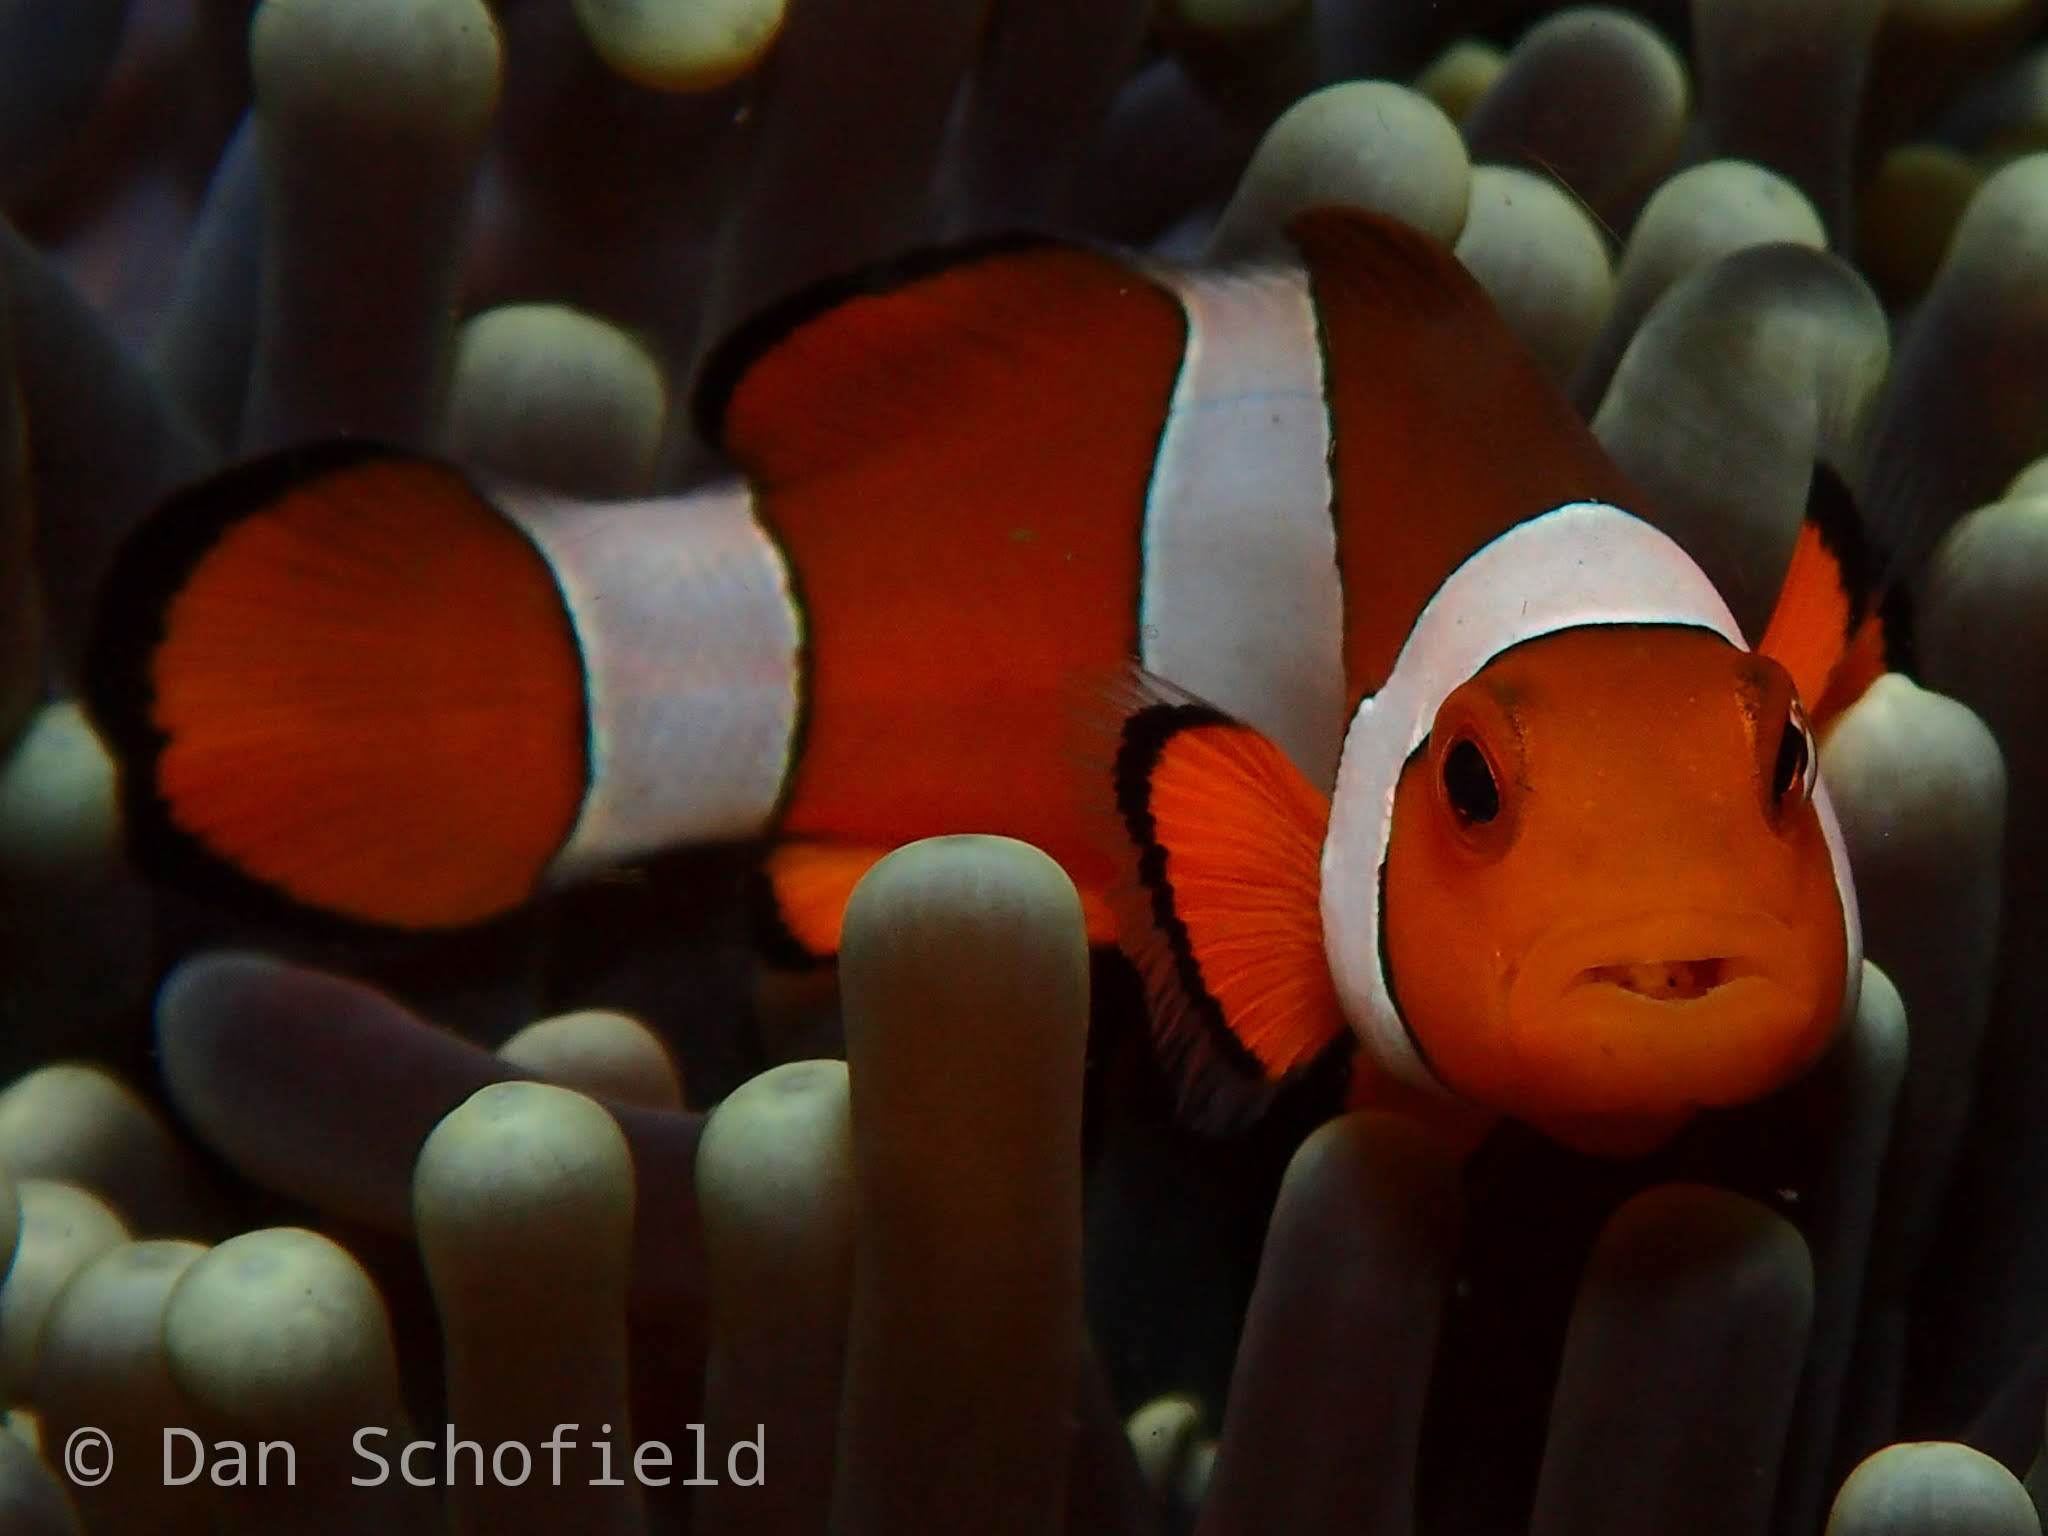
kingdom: Animalia
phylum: Chordata
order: Perciformes
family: Pomacentridae
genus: Amphiprion
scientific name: Amphiprion ocellaris
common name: Clown anemonefish
